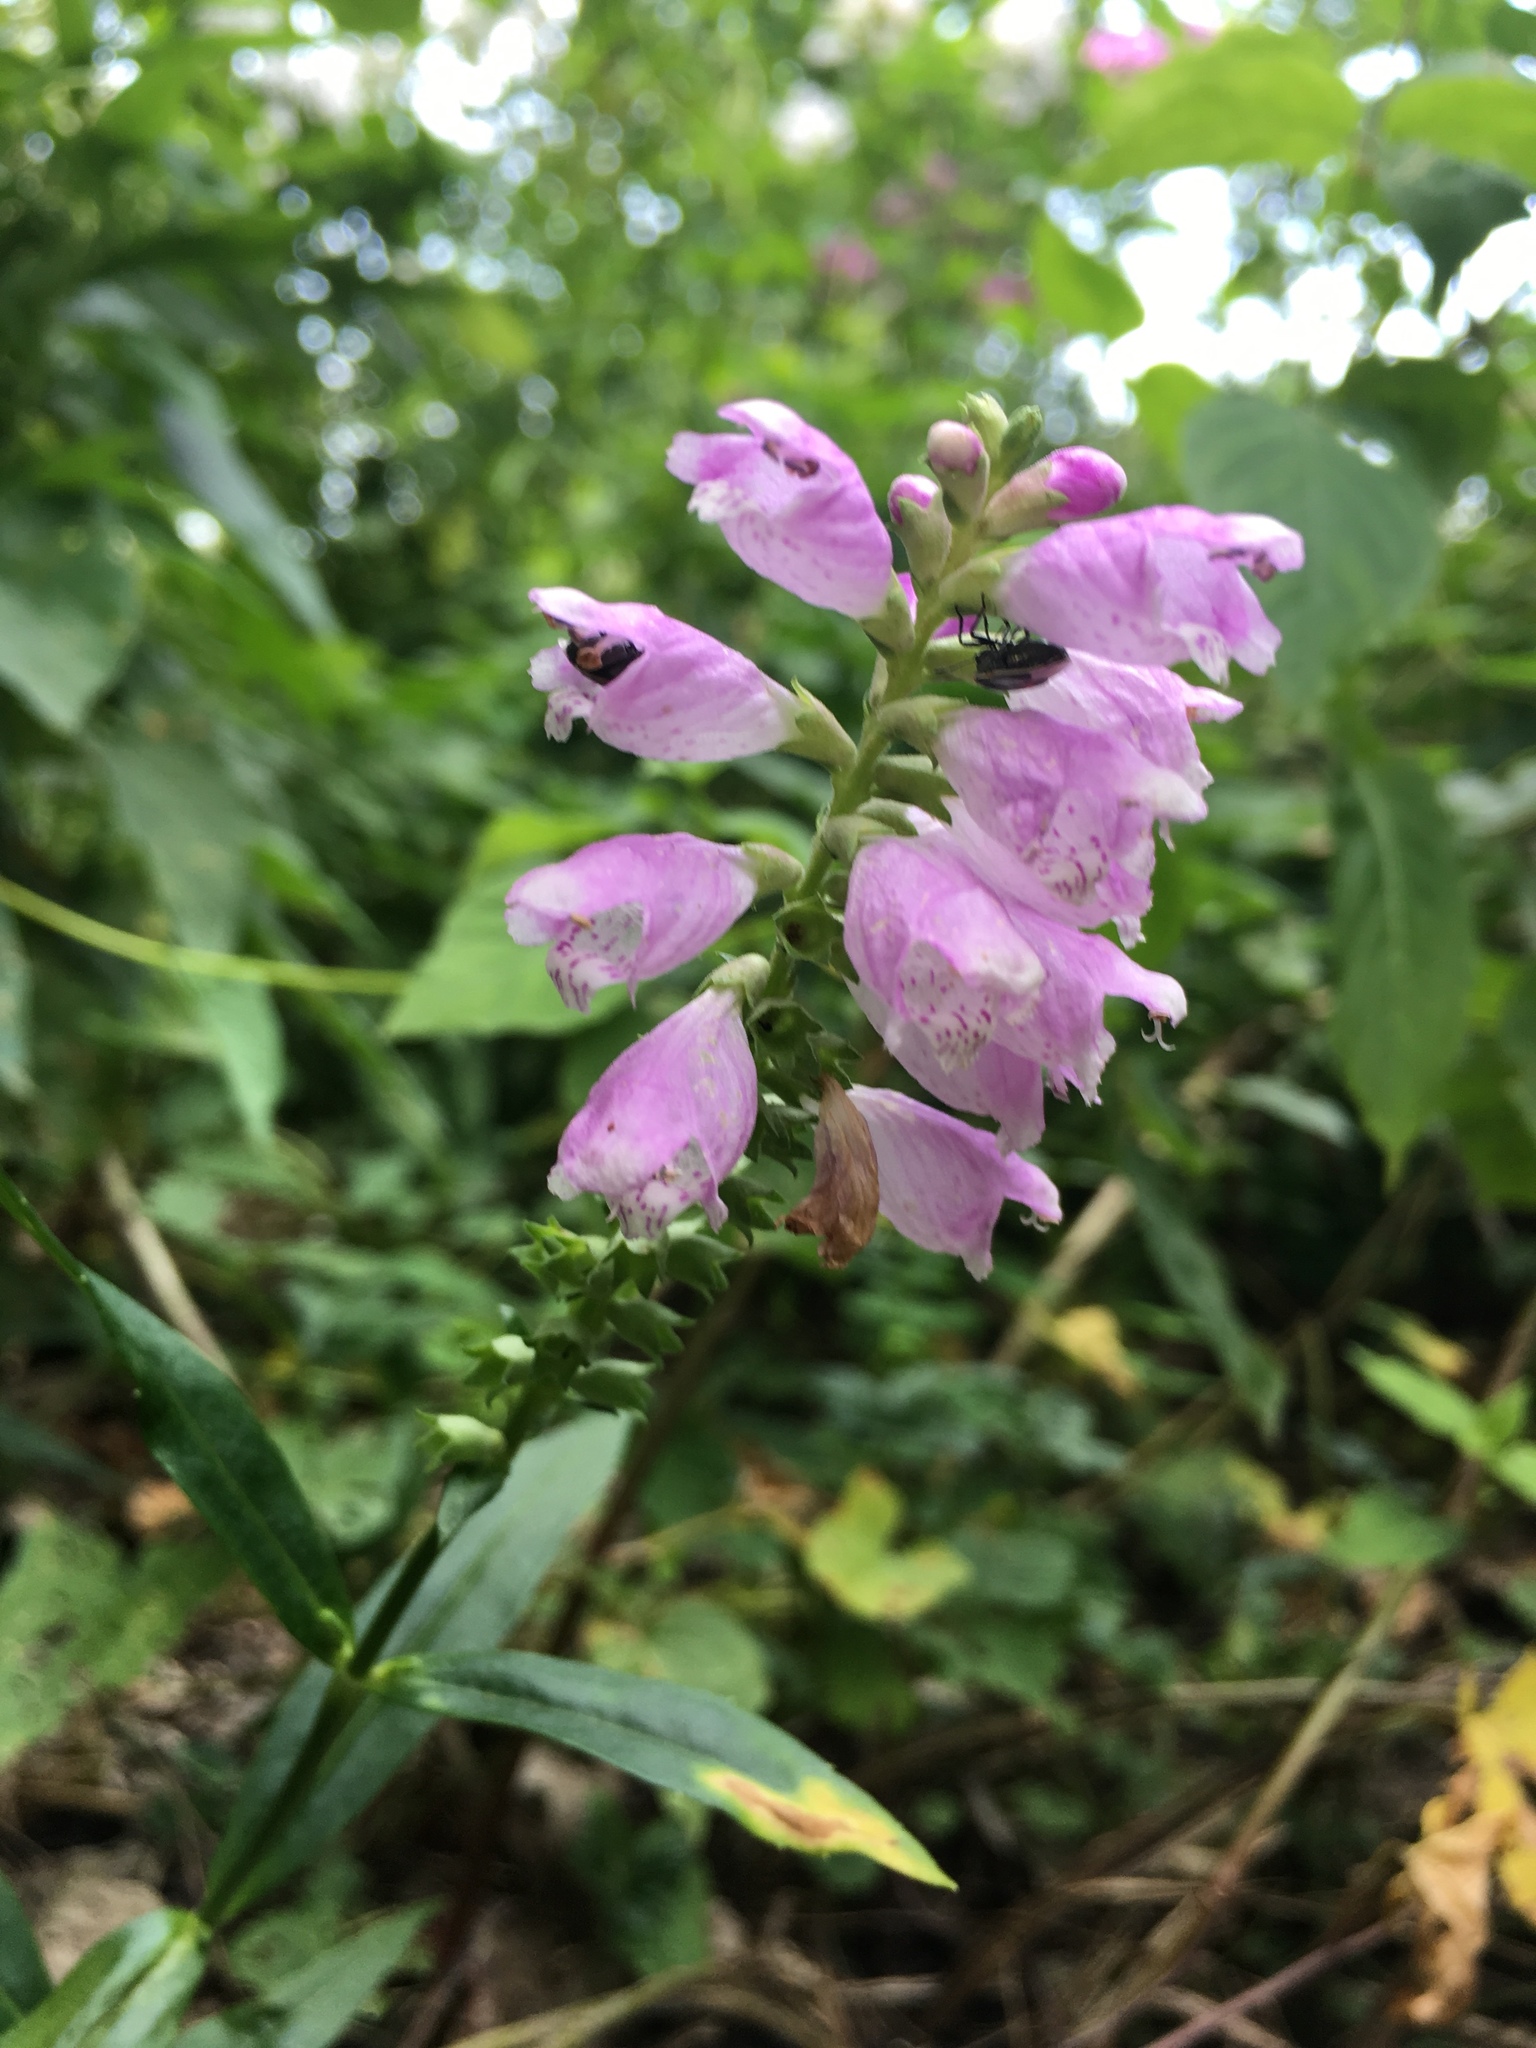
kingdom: Plantae
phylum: Tracheophyta
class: Magnoliopsida
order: Lamiales
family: Lamiaceae
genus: Physostegia
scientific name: Physostegia virginiana
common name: Obedient-plant
